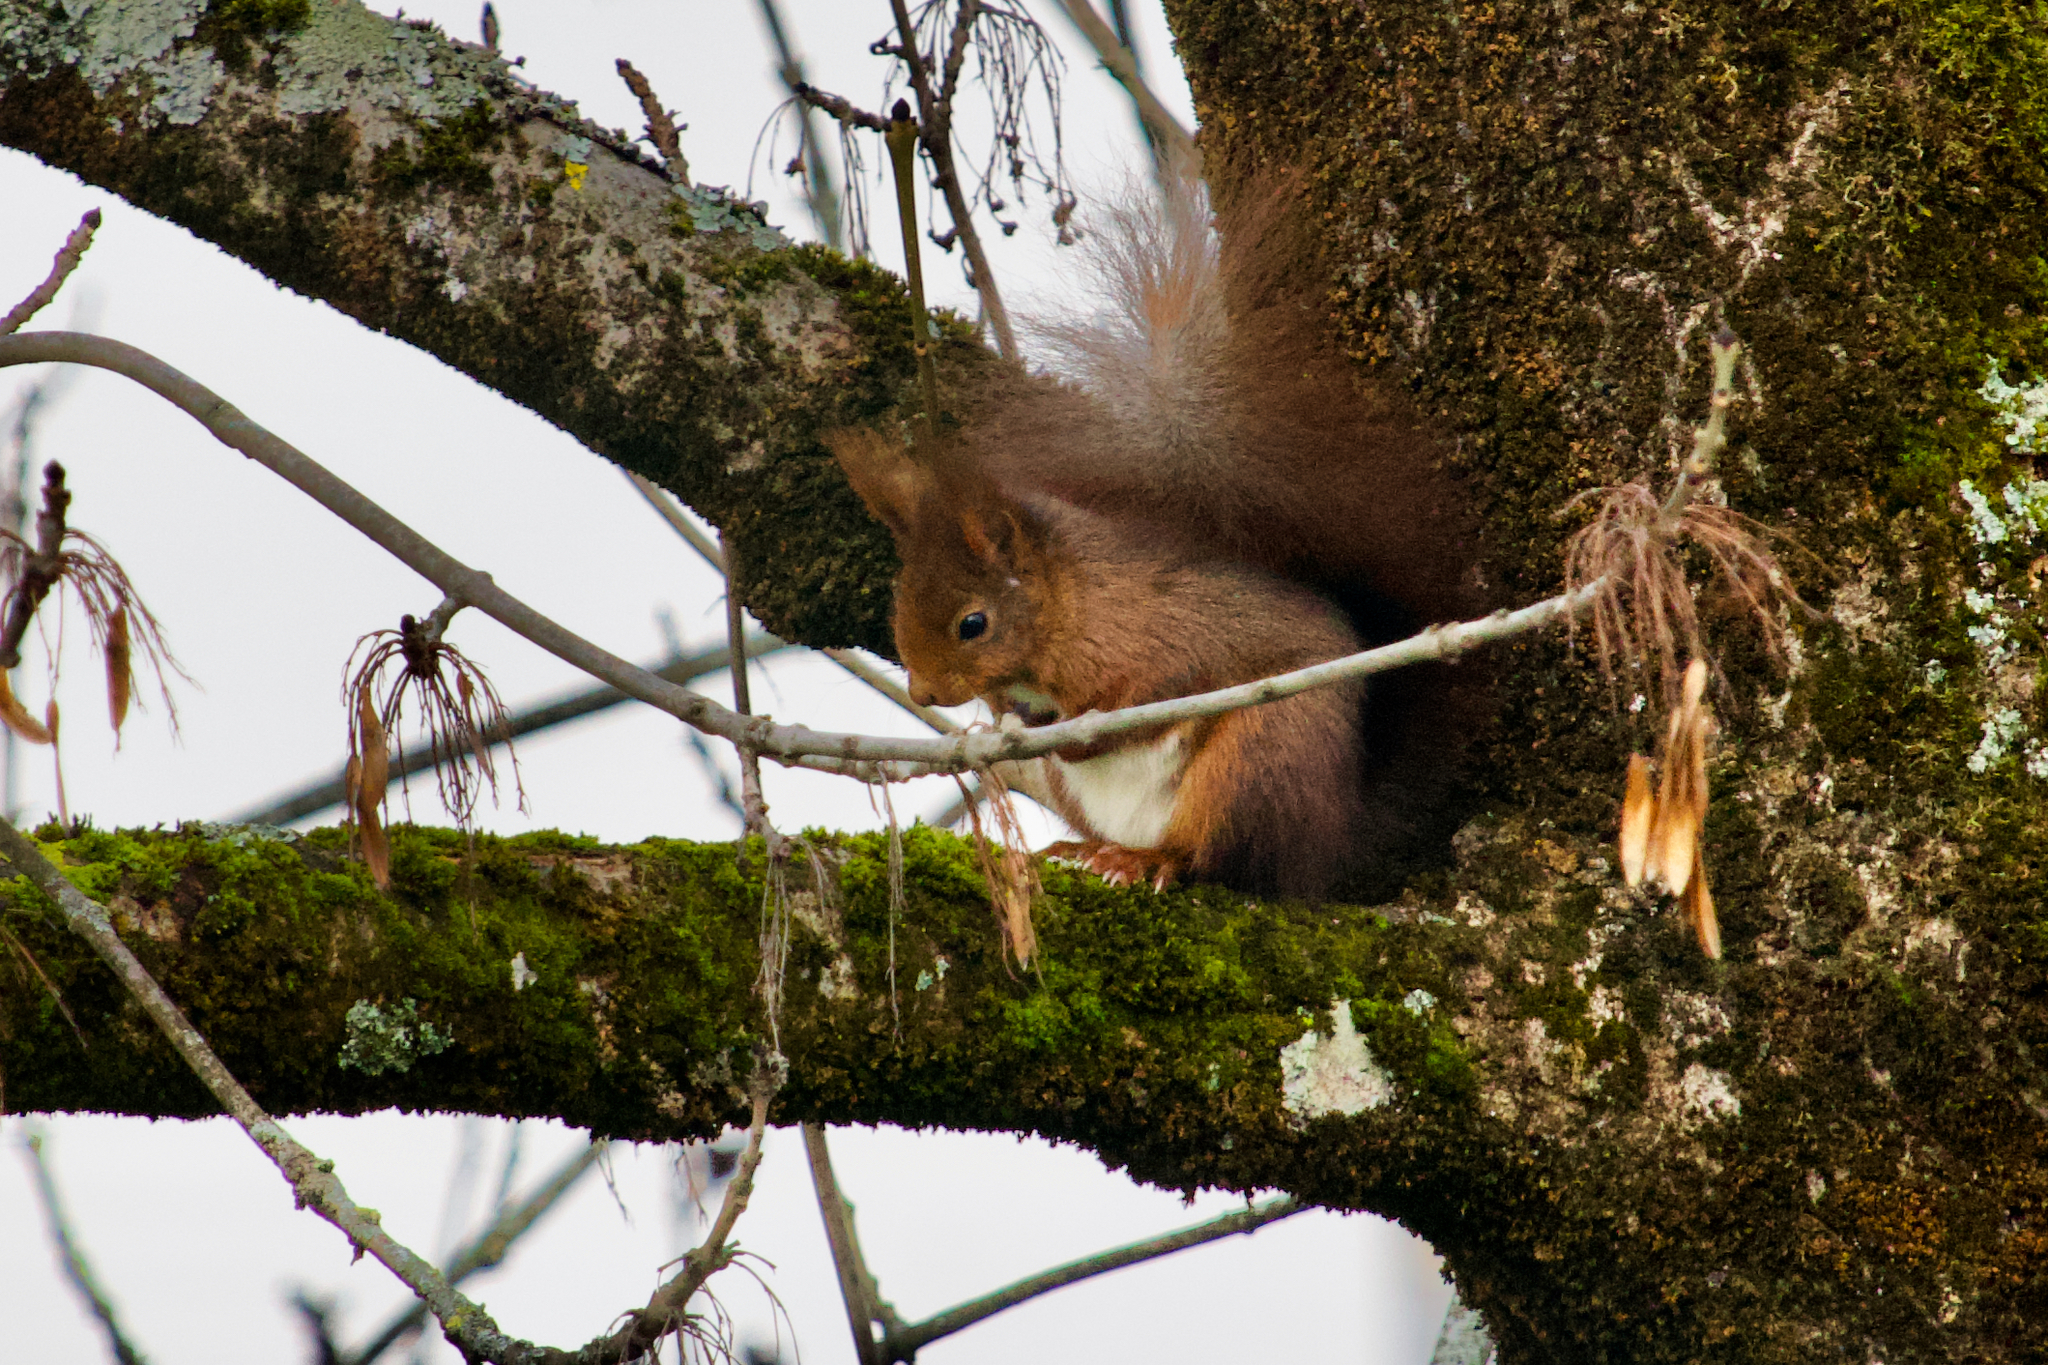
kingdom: Animalia
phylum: Chordata
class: Mammalia
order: Rodentia
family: Sciuridae
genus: Sciurus
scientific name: Sciurus vulgaris
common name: Eurasian red squirrel
